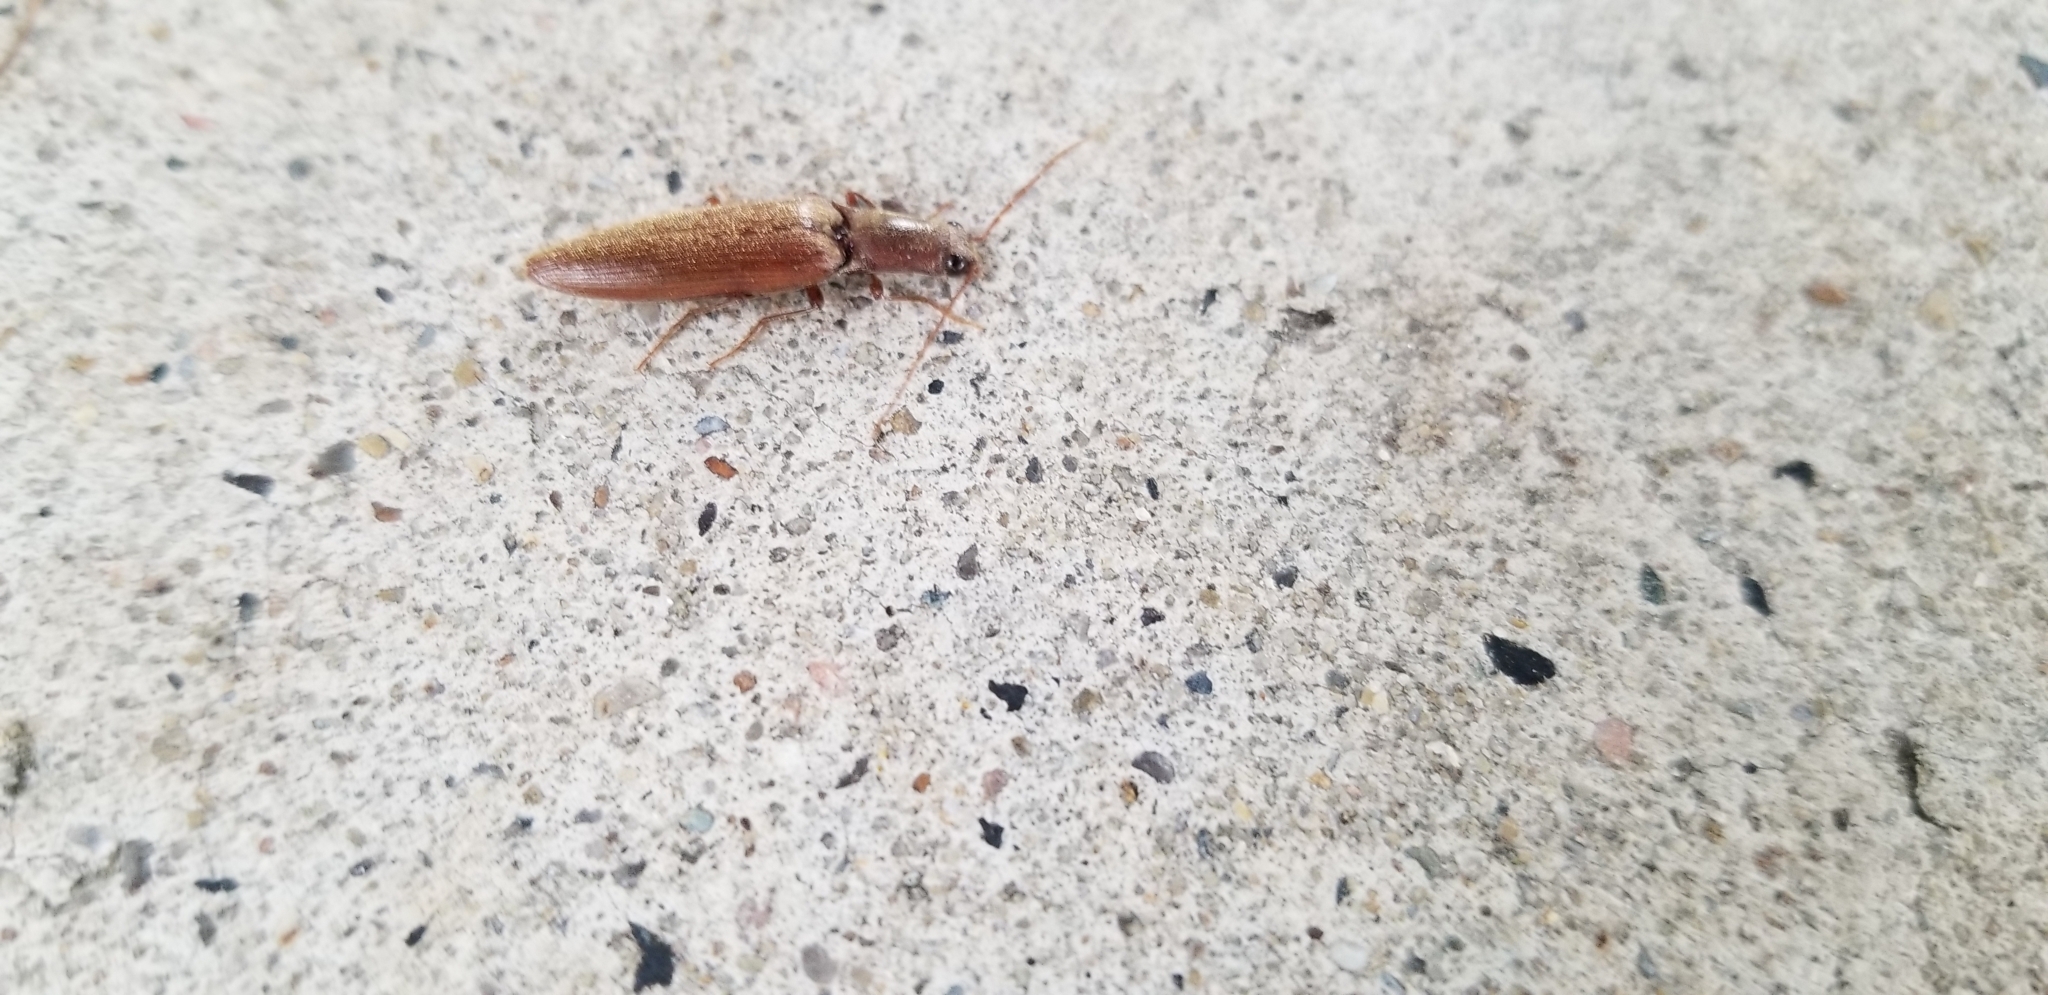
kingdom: Animalia
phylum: Arthropoda
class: Insecta
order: Coleoptera
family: Elateridae
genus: Proludius
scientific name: Proludius pyrros
